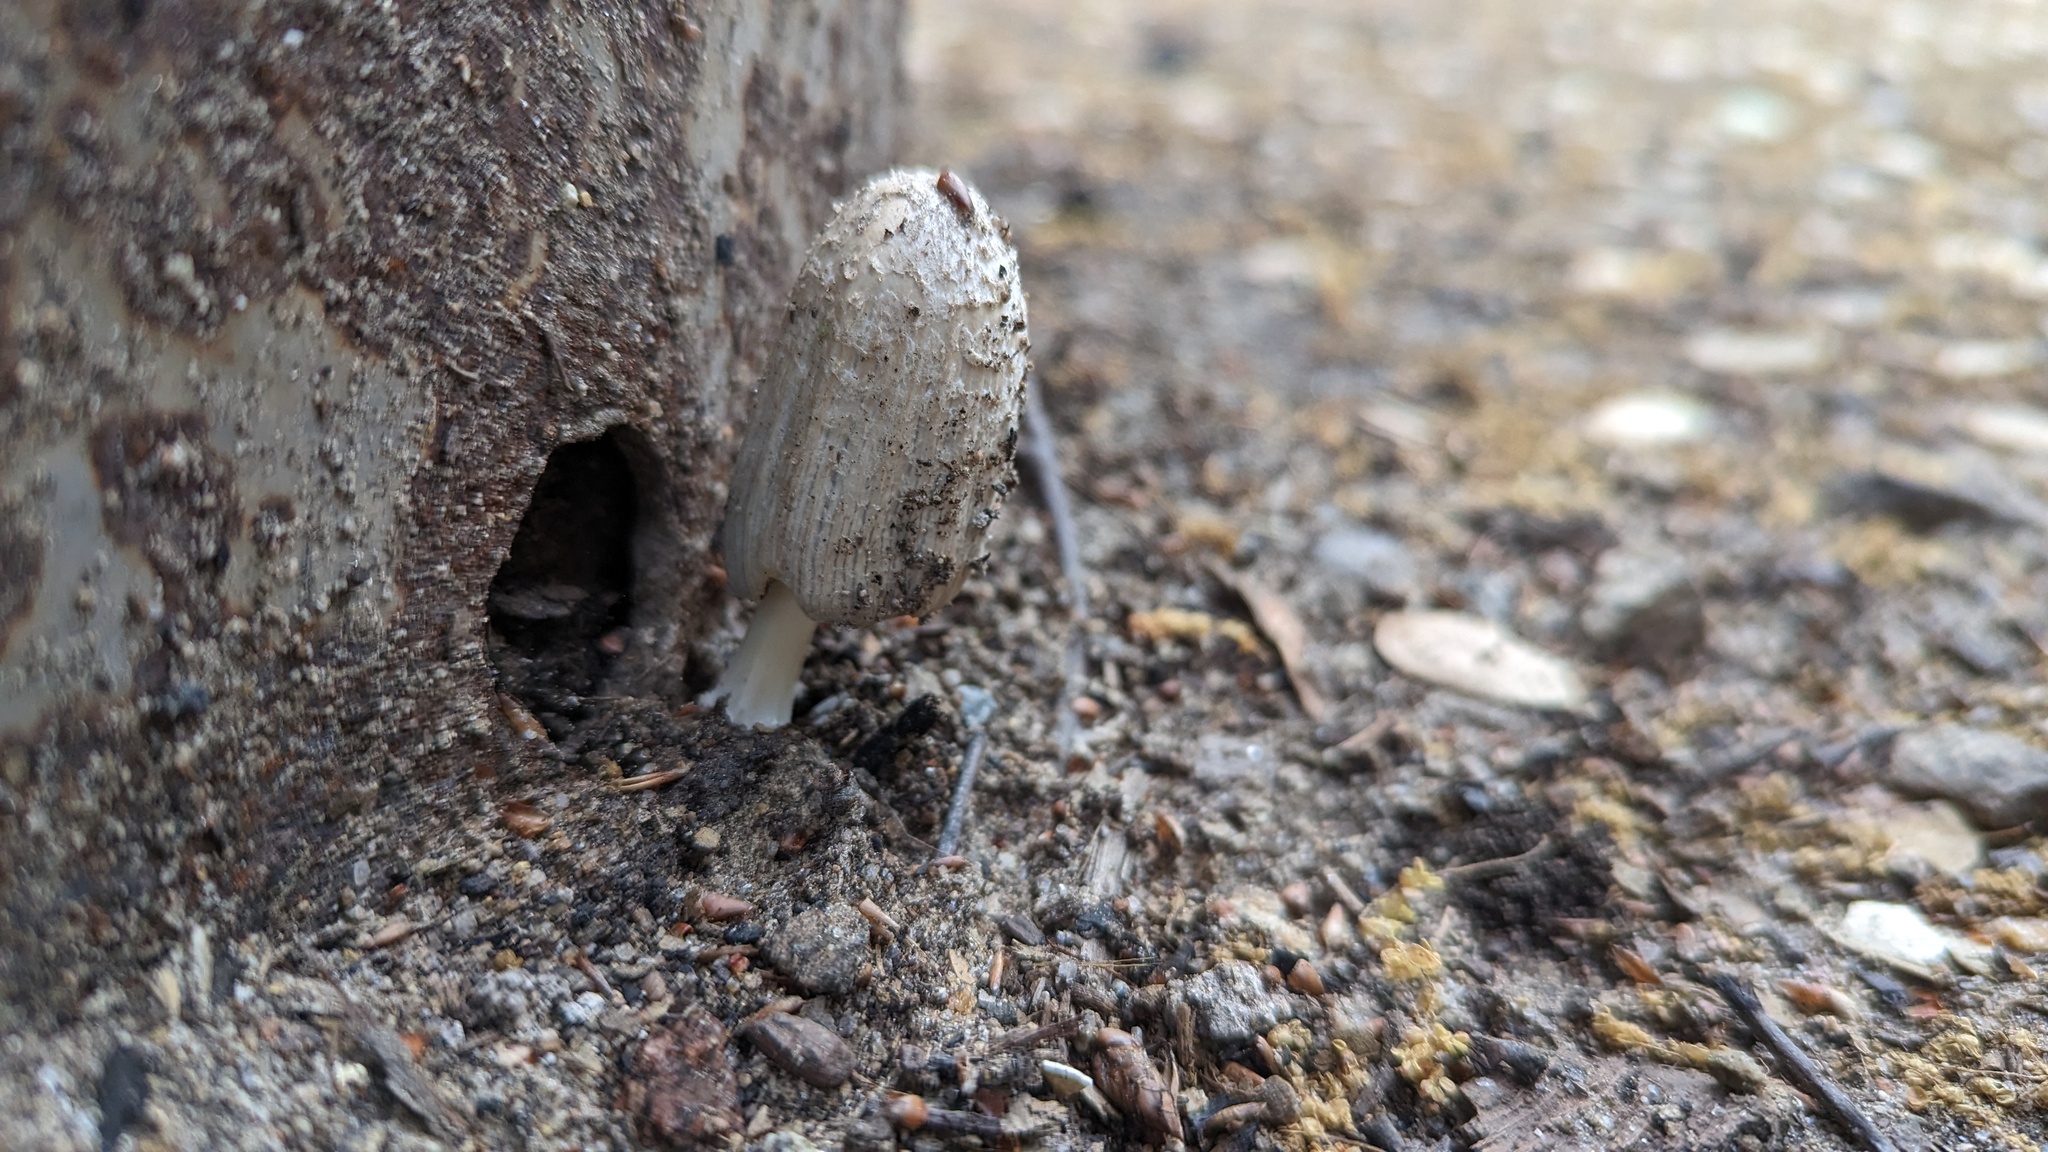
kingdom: Fungi
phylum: Basidiomycota
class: Agaricomycetes
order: Agaricales
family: Psathyrellaceae
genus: Coprinellus
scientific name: Coprinellus flocculosus
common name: Flocculose inkcap
